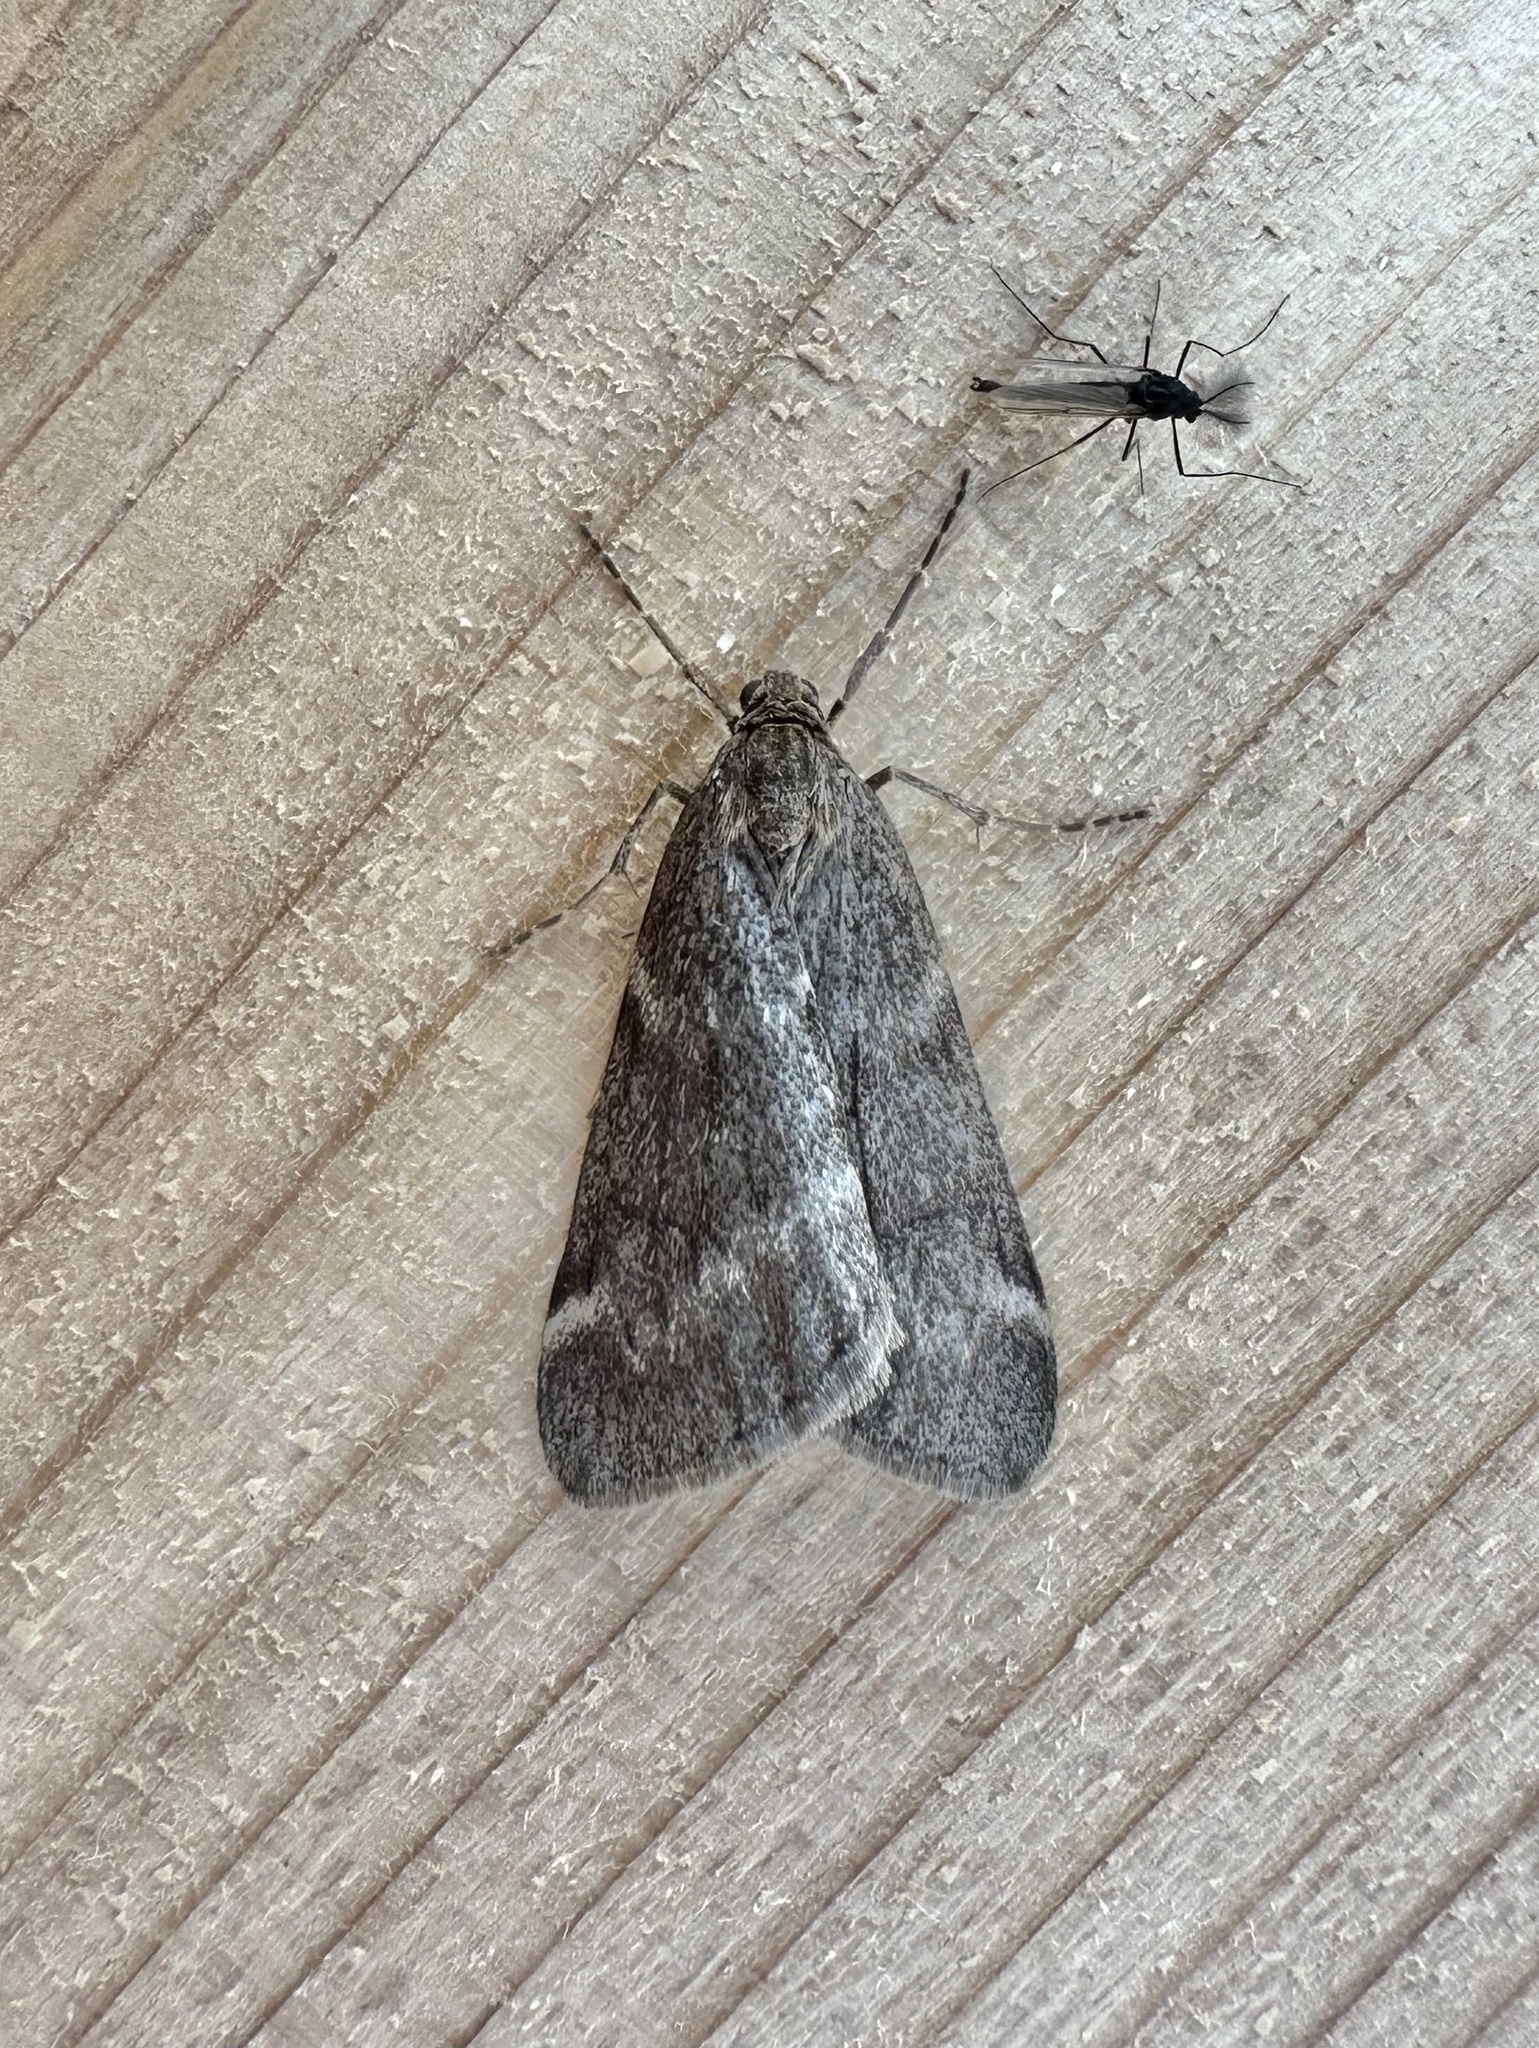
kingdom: Animalia
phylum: Arthropoda
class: Insecta
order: Lepidoptera
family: Geometridae
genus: Alsophila
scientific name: Alsophila pometaria
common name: Fall cankerworm
